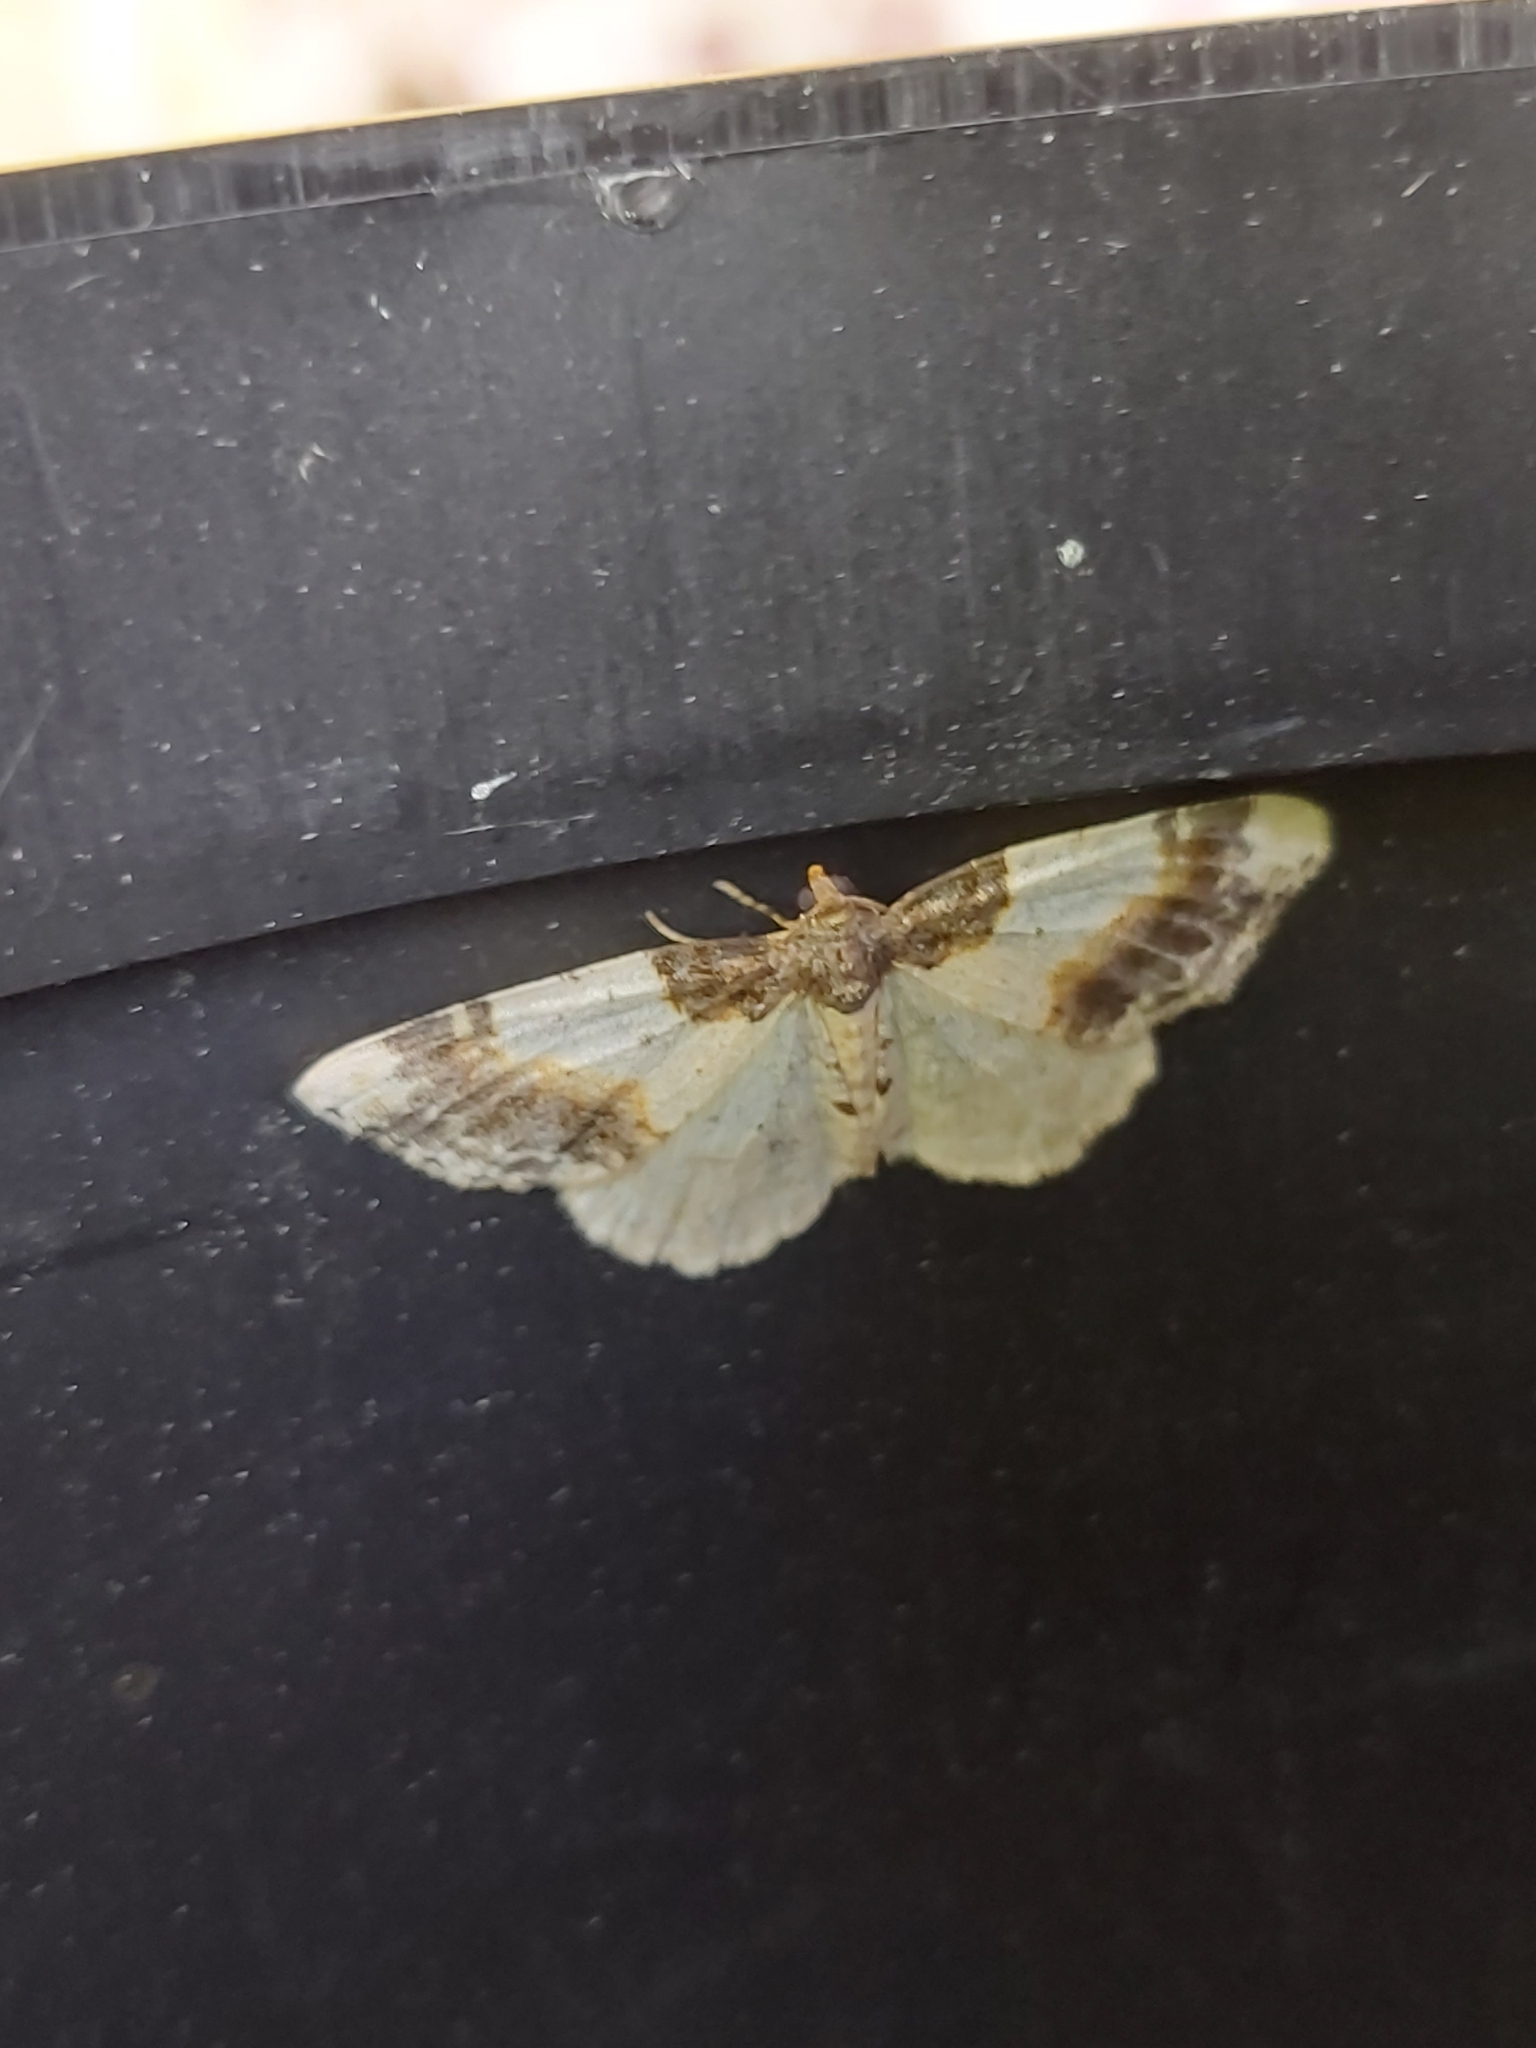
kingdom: Animalia
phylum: Arthropoda
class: Insecta
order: Lepidoptera
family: Geometridae
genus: Ligdia
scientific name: Ligdia adustata
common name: Scorched carpet
